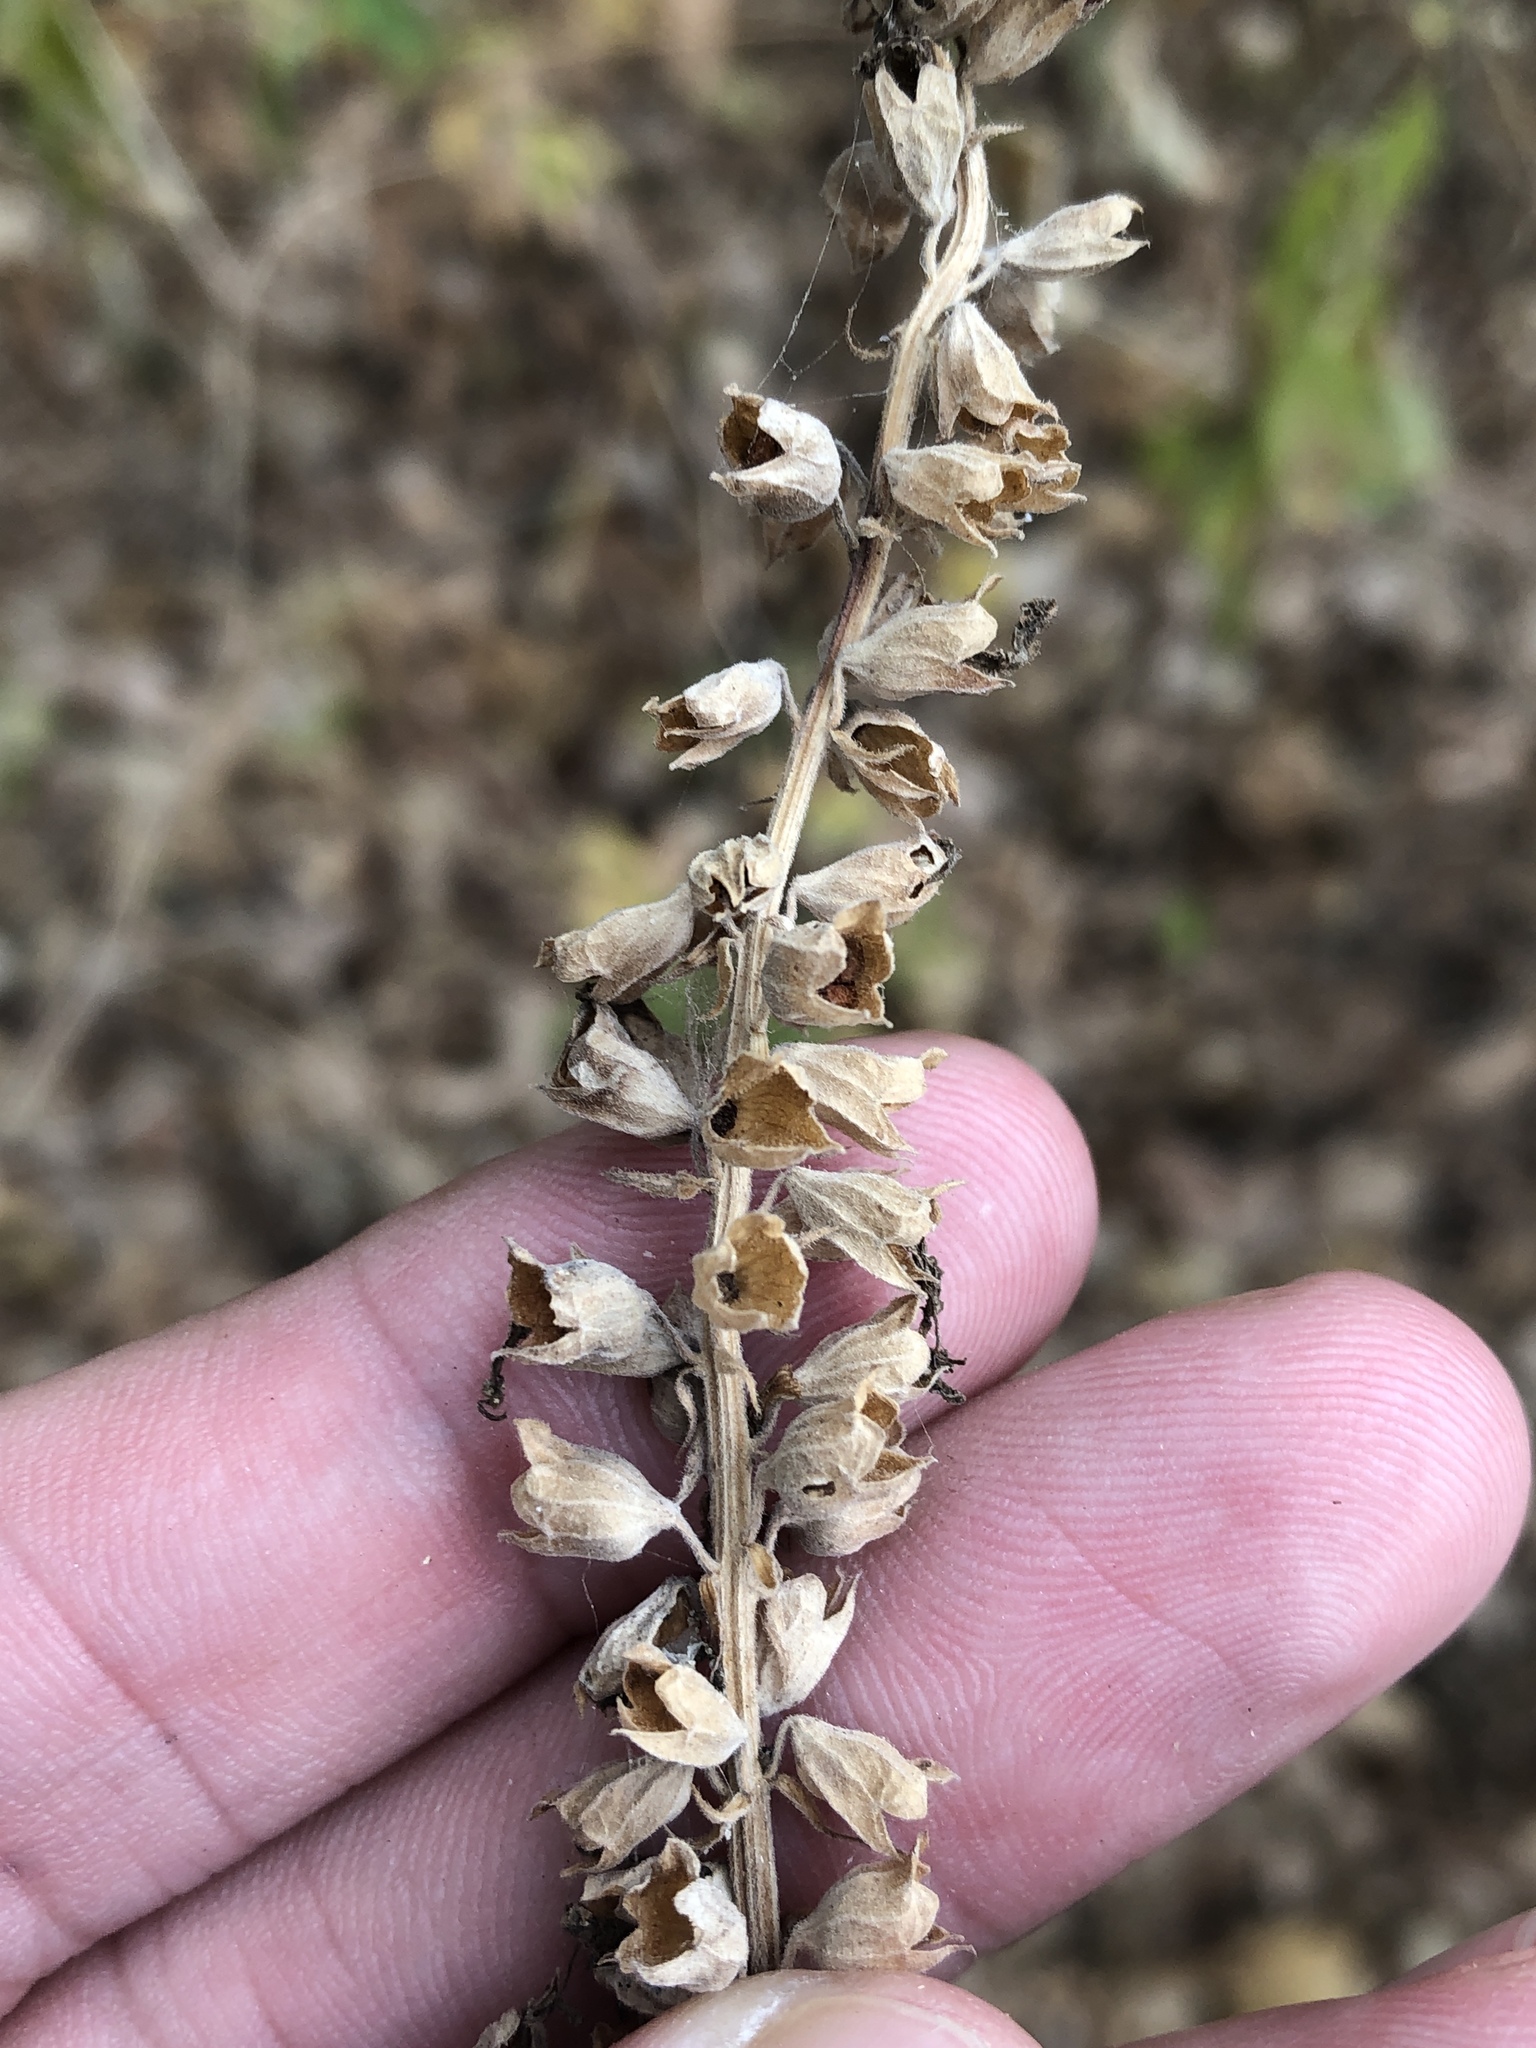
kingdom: Plantae
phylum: Tracheophyta
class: Magnoliopsida
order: Lamiales
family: Lamiaceae
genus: Teucrium
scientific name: Teucrium canadense
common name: American germander
